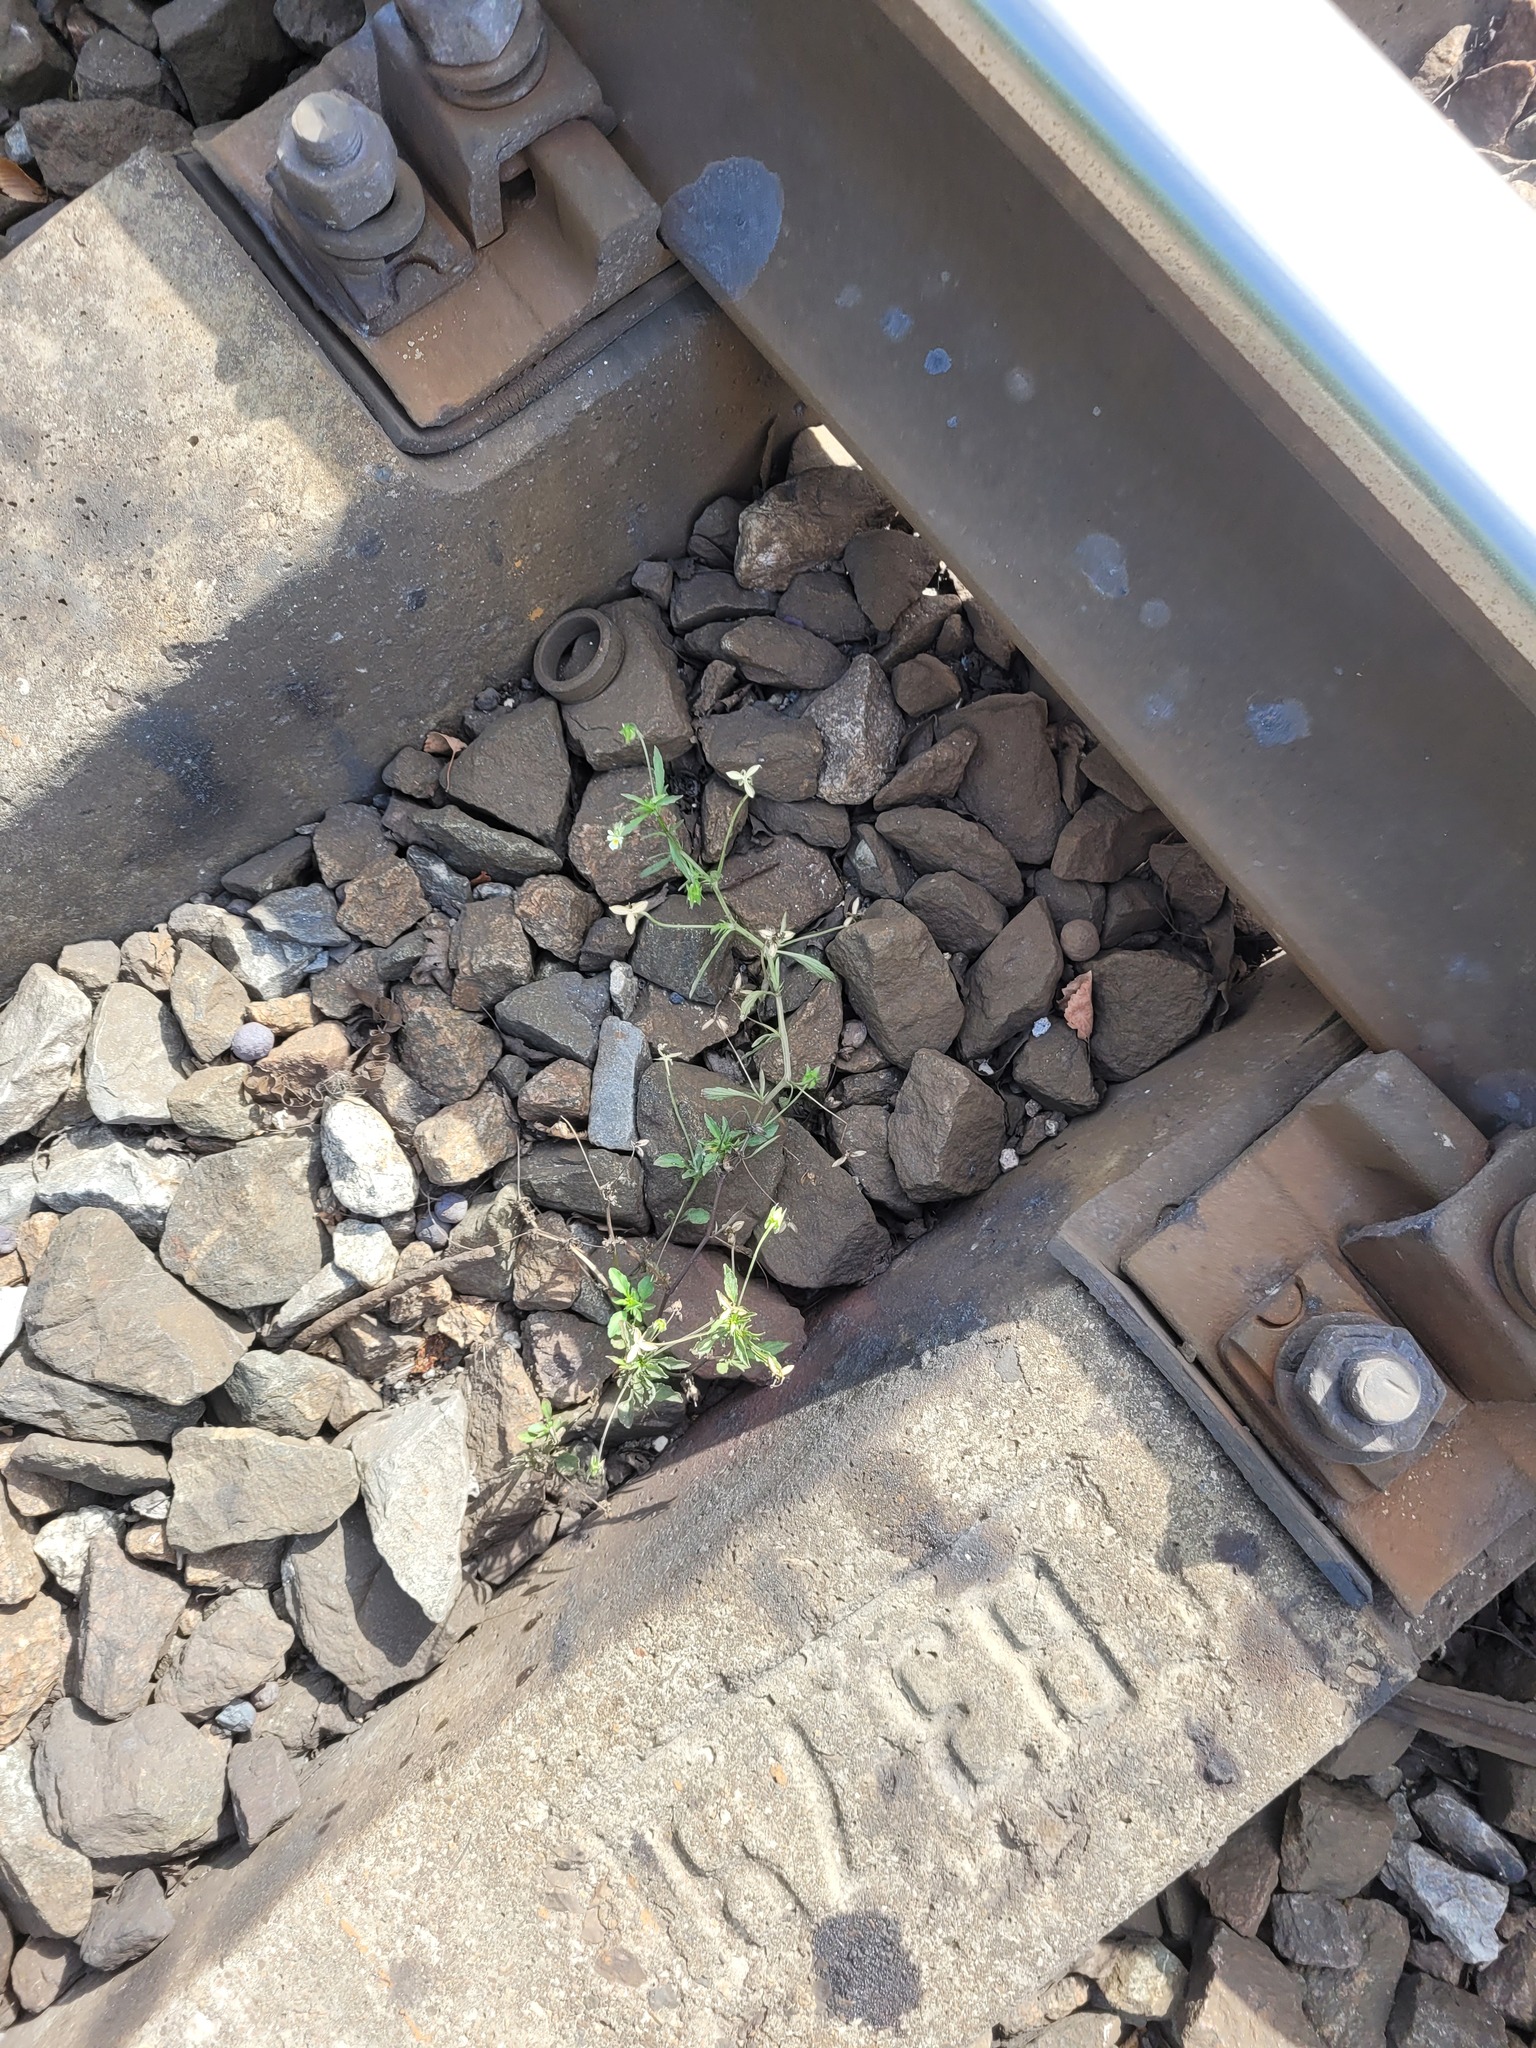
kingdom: Plantae
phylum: Tracheophyta
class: Magnoliopsida
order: Malpighiales
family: Violaceae
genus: Viola
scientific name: Viola arvensis
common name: Field pansy
